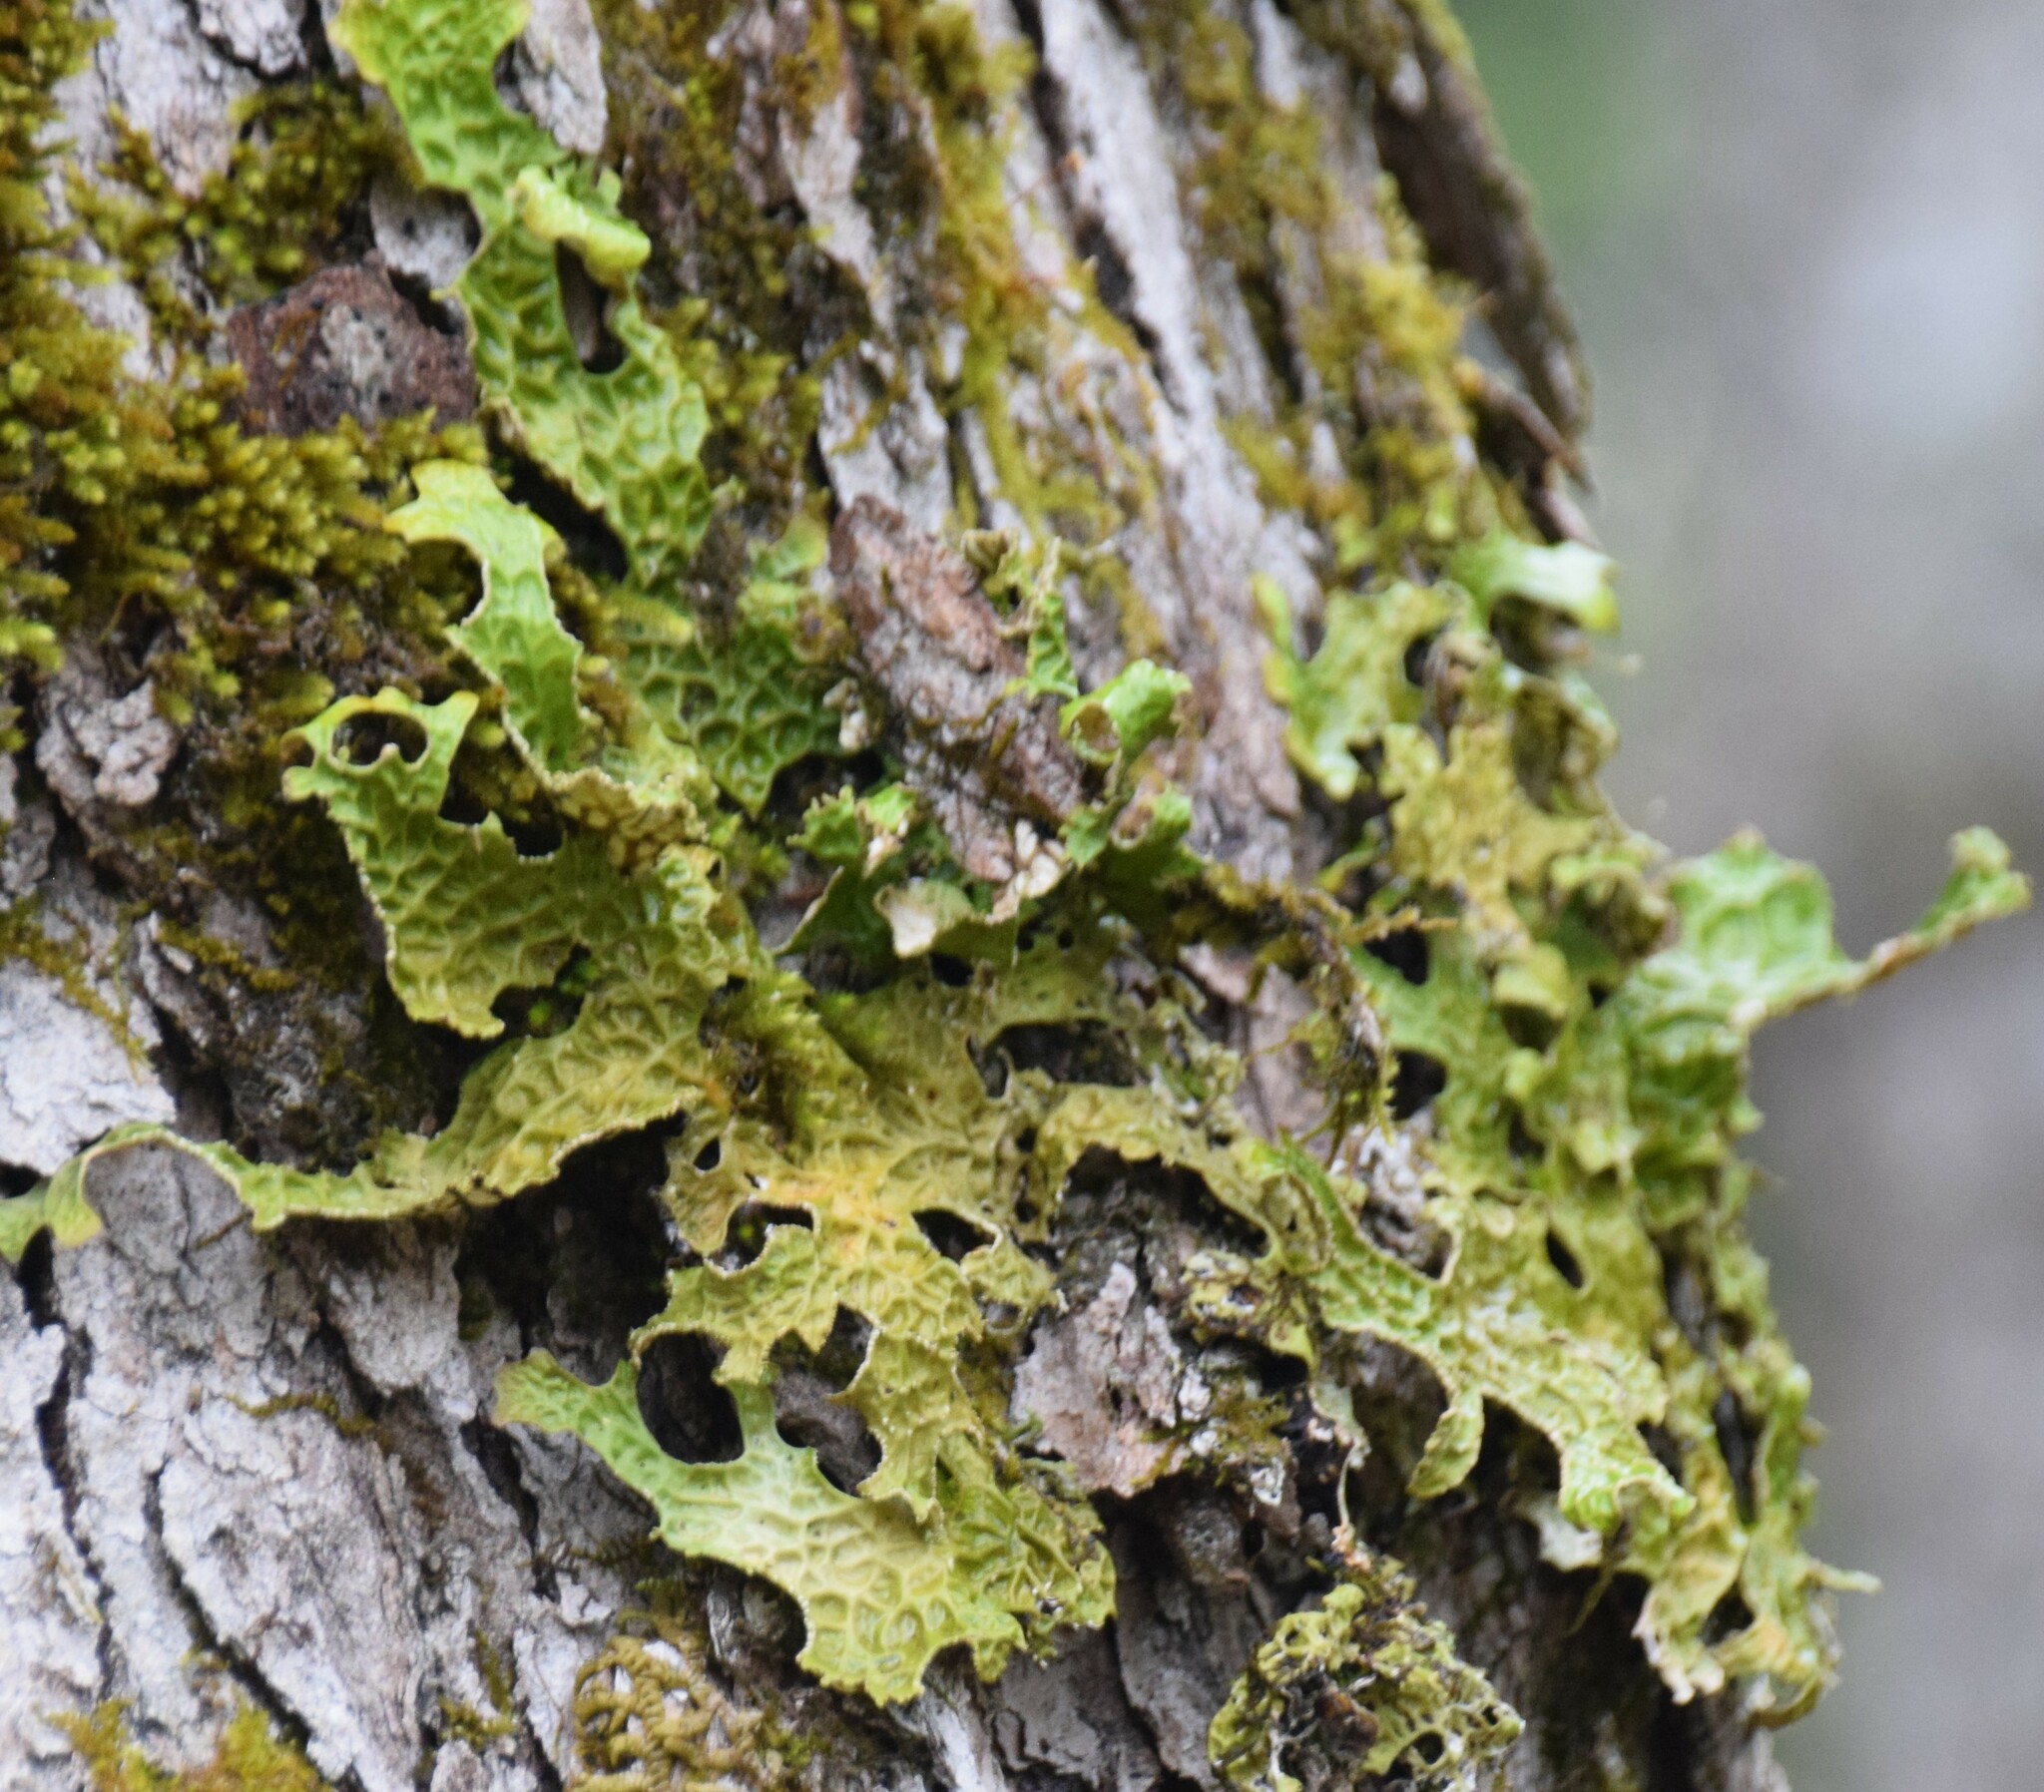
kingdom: Fungi
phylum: Ascomycota
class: Lecanoromycetes
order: Peltigerales
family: Lobariaceae
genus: Lobaria
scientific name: Lobaria pulmonaria
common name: Lungwort
